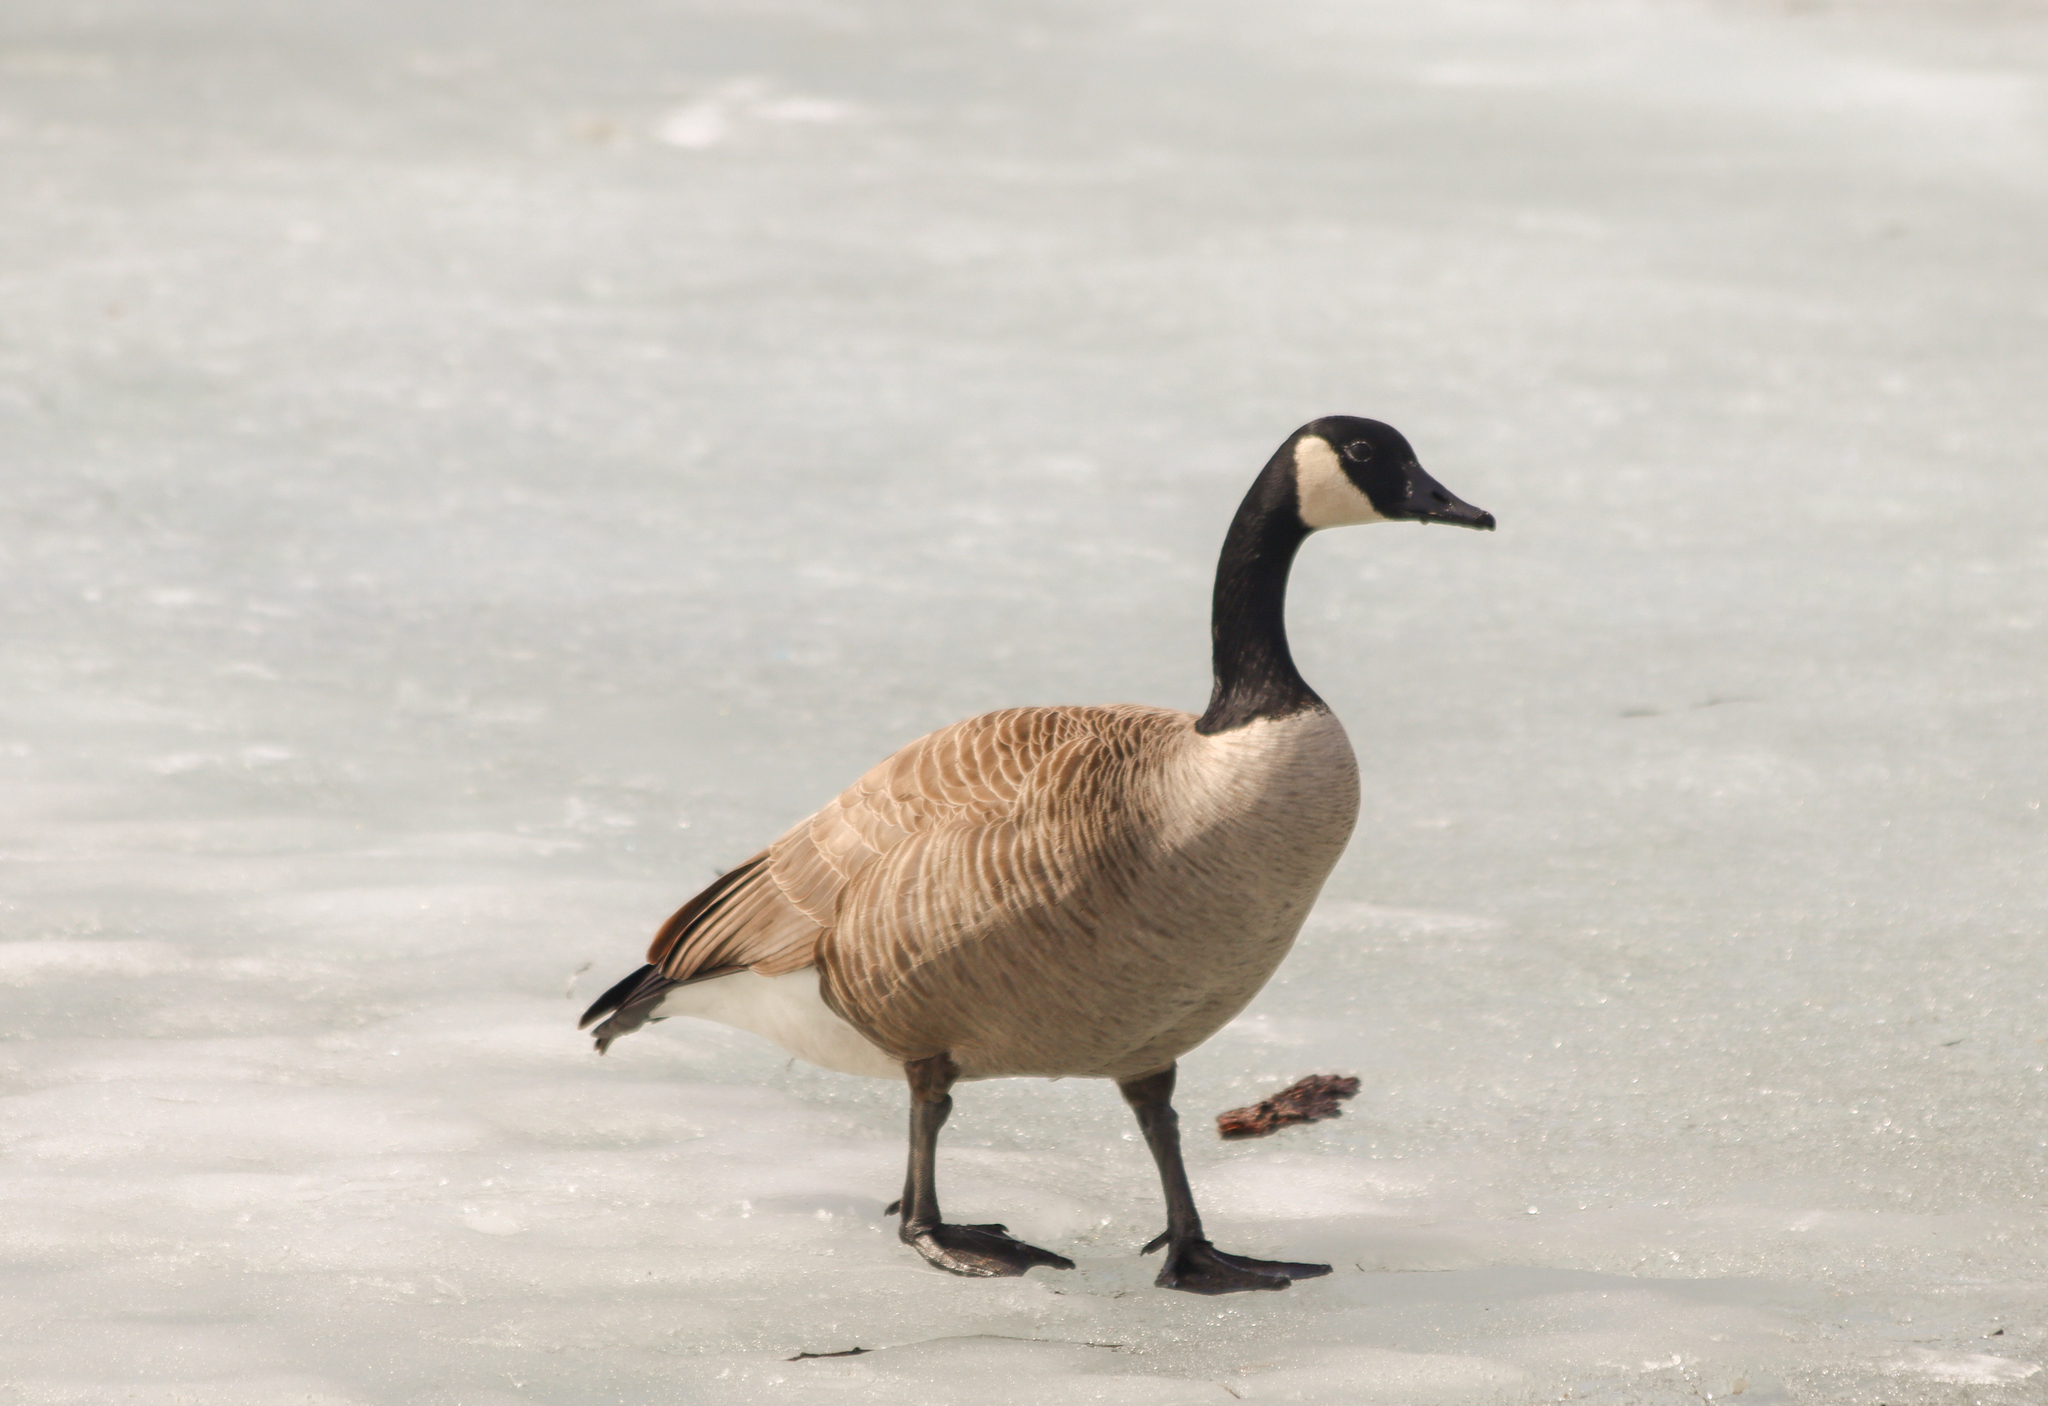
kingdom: Animalia
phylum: Chordata
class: Aves
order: Anseriformes
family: Anatidae
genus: Branta
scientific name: Branta canadensis
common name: Canada goose
